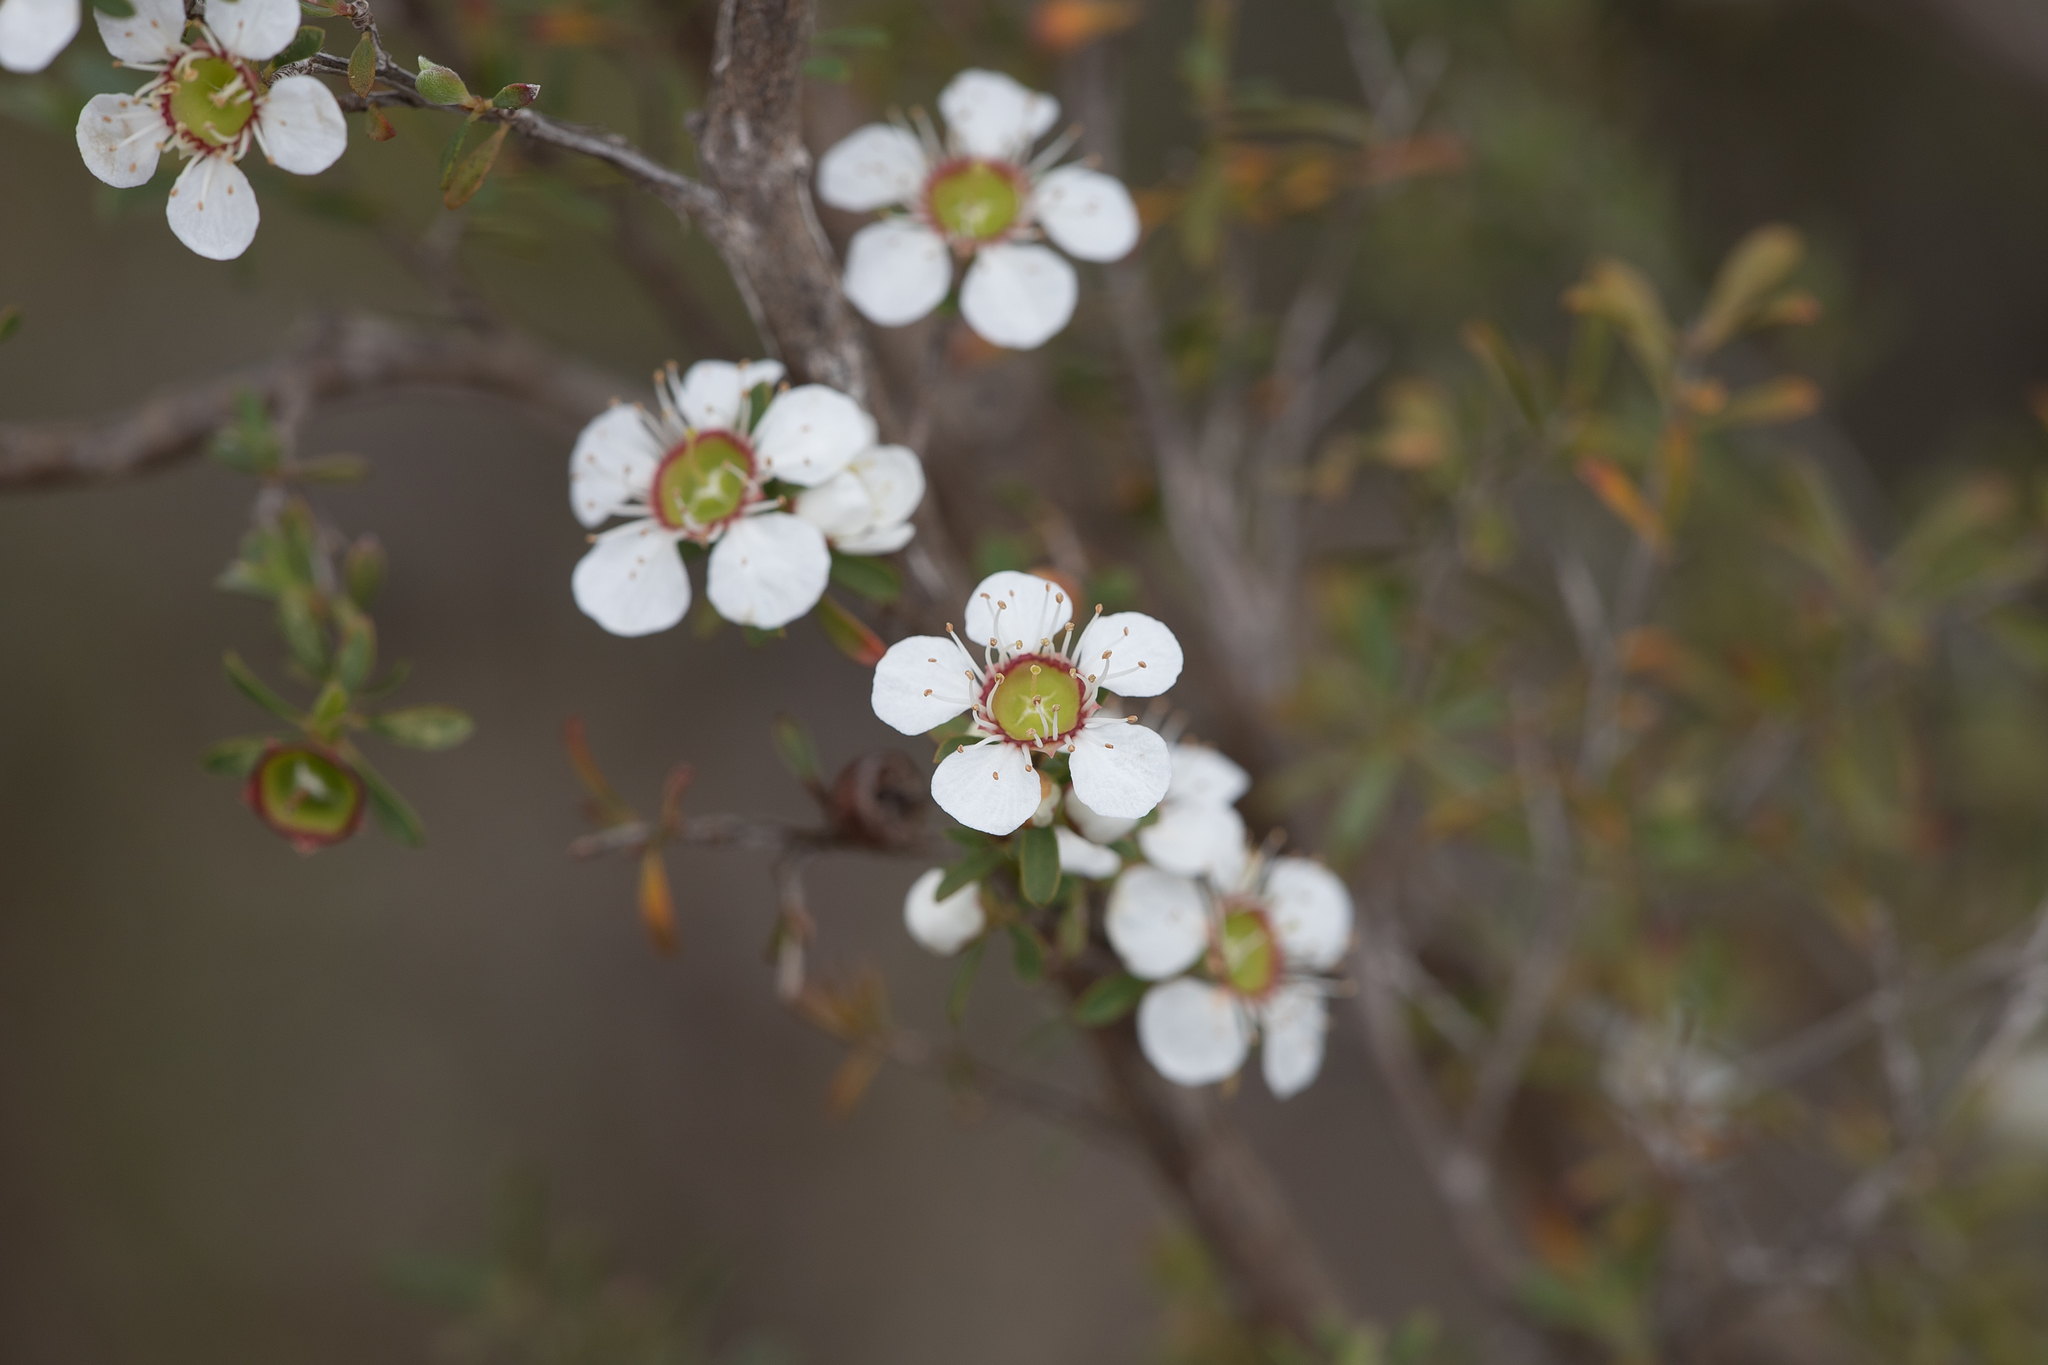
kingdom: Plantae
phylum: Tracheophyta
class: Magnoliopsida
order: Myrtales
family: Myrtaceae
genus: Leptospermum
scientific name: Leptospermum myrsinoides
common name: Heath teatree
